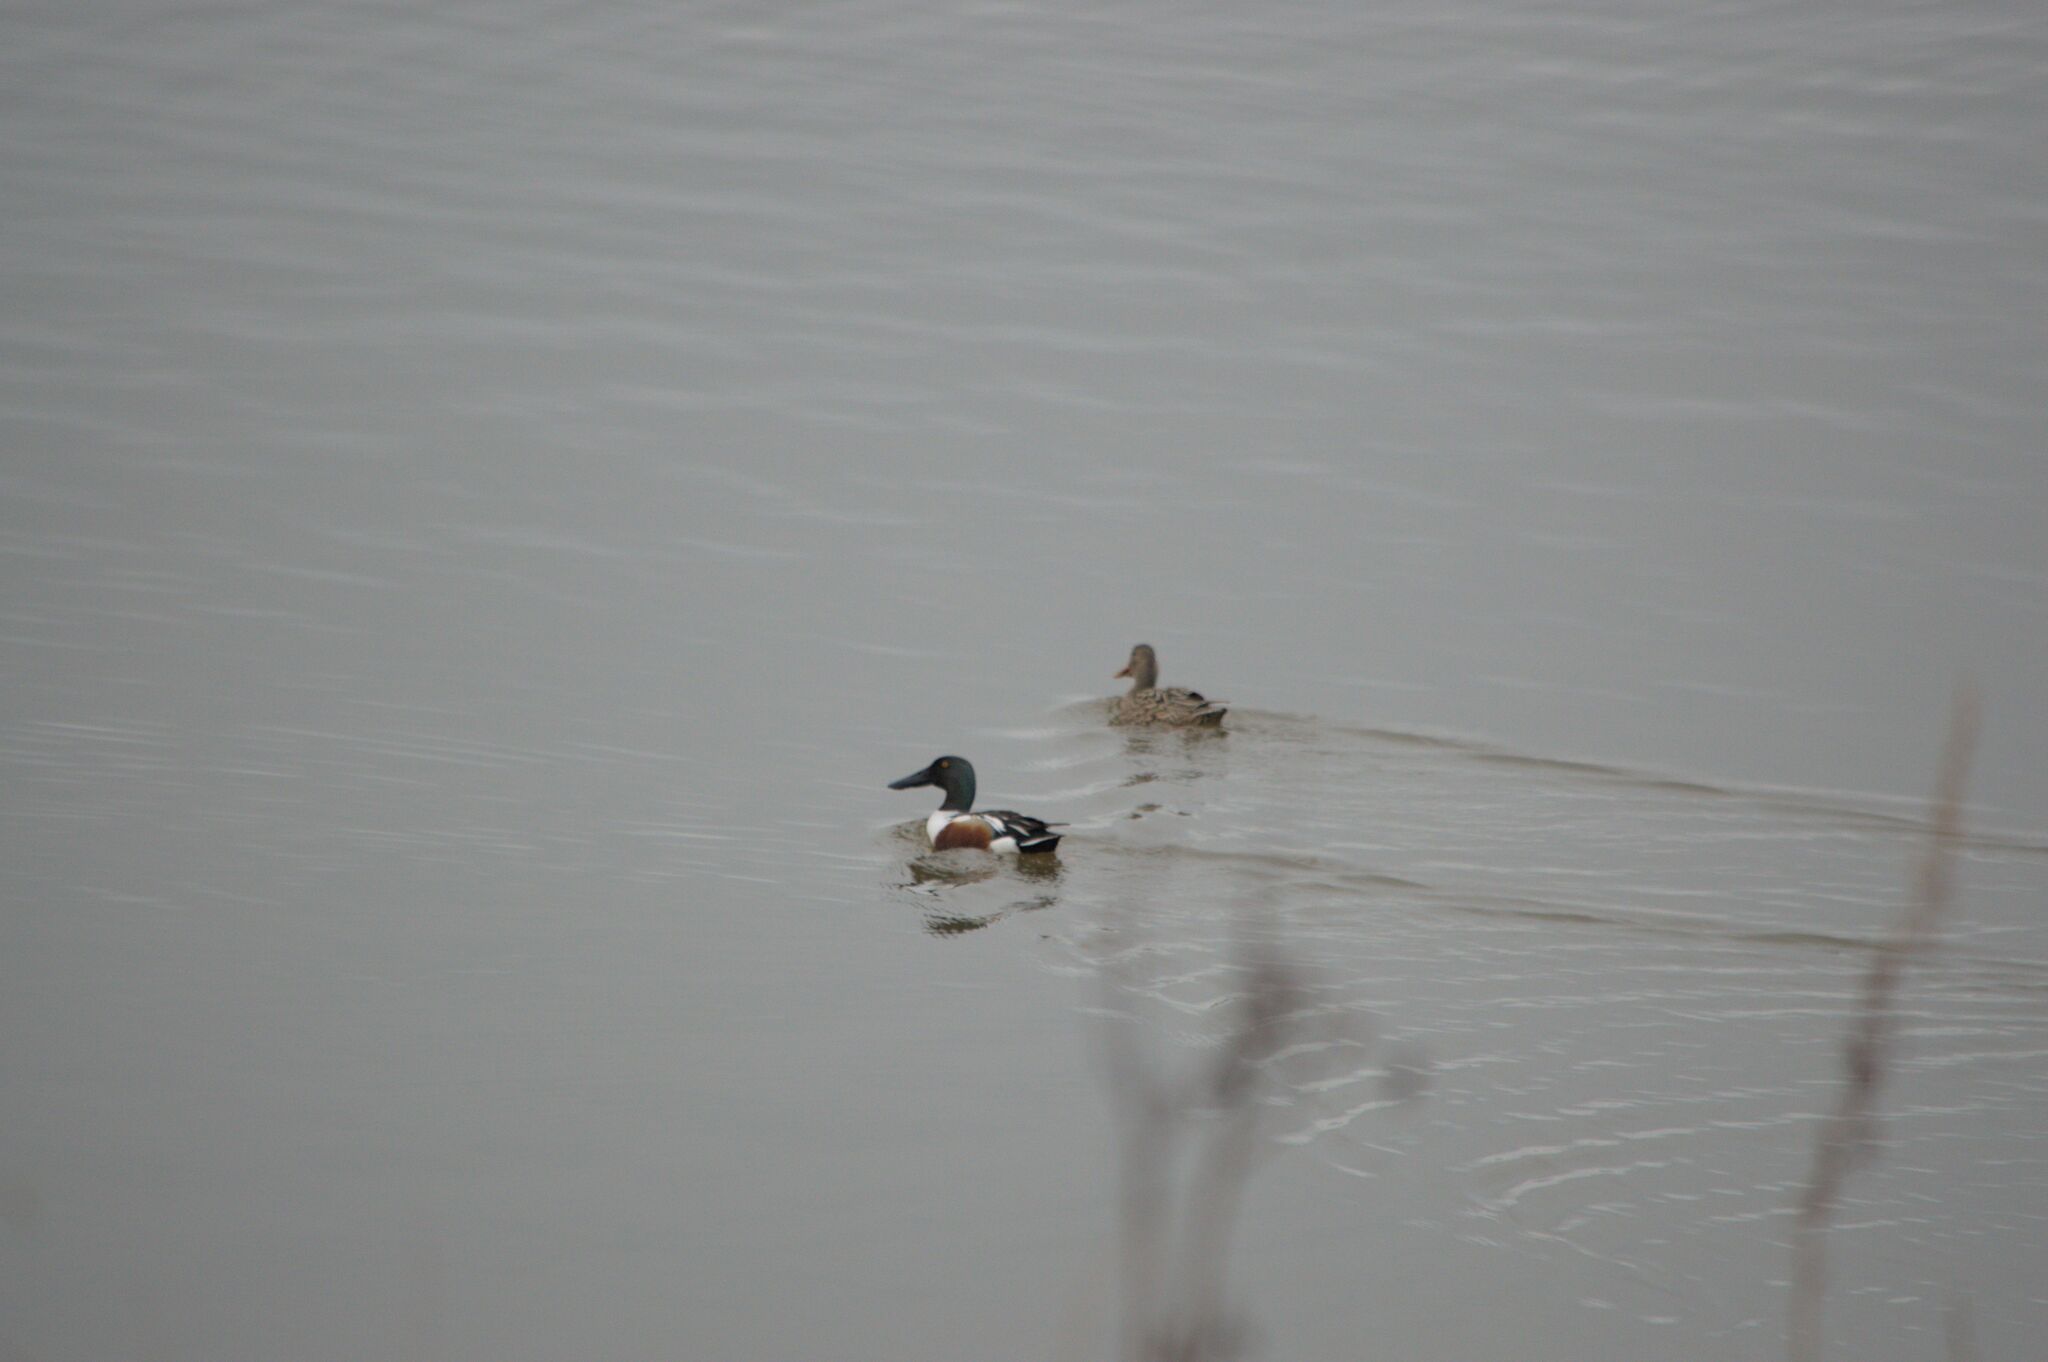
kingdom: Animalia
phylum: Chordata
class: Aves
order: Anseriformes
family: Anatidae
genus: Spatula
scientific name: Spatula clypeata
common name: Northern shoveler
